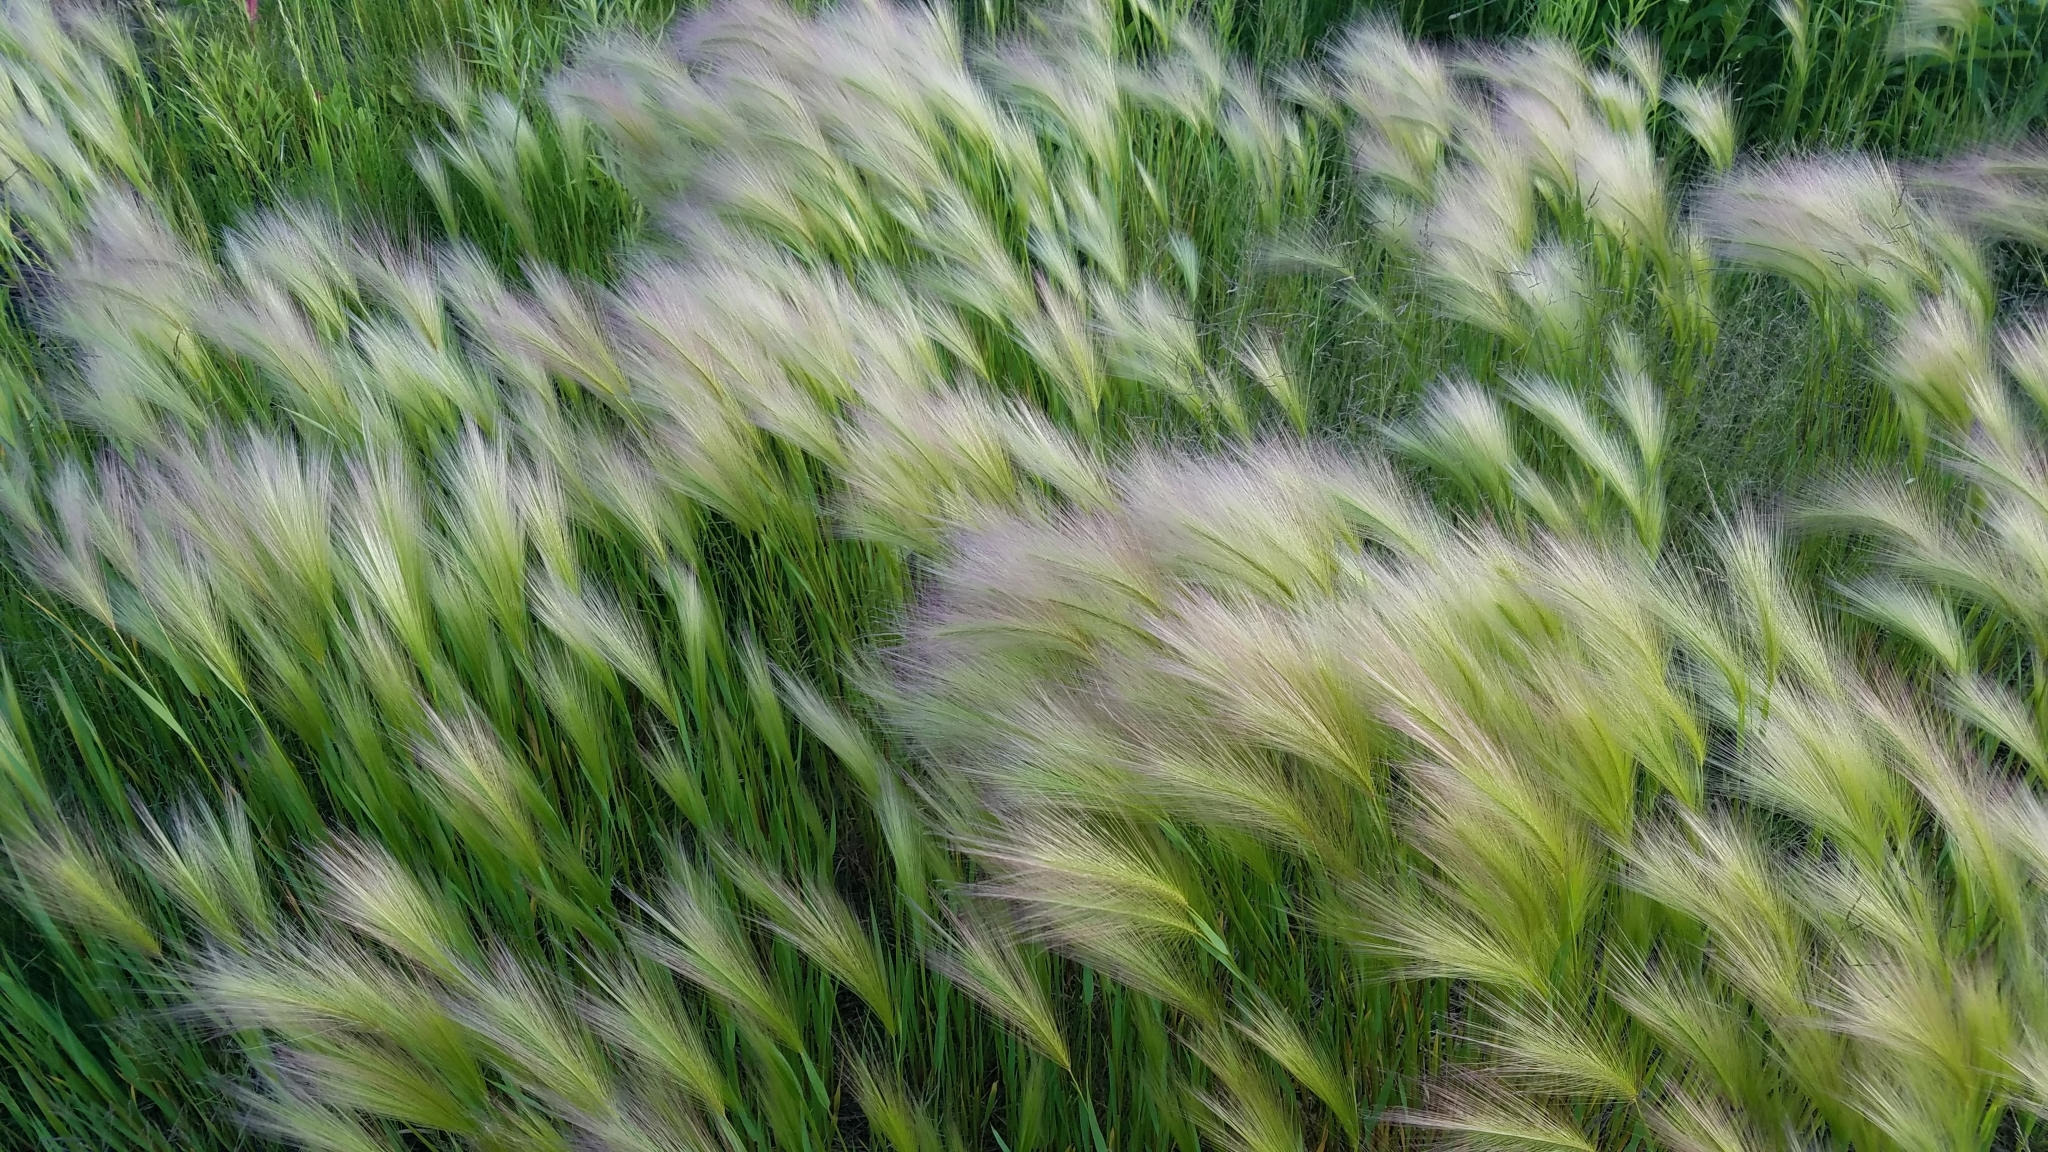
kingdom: Plantae
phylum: Tracheophyta
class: Liliopsida
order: Poales
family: Poaceae
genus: Hordeum
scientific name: Hordeum jubatum
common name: Foxtail barley
